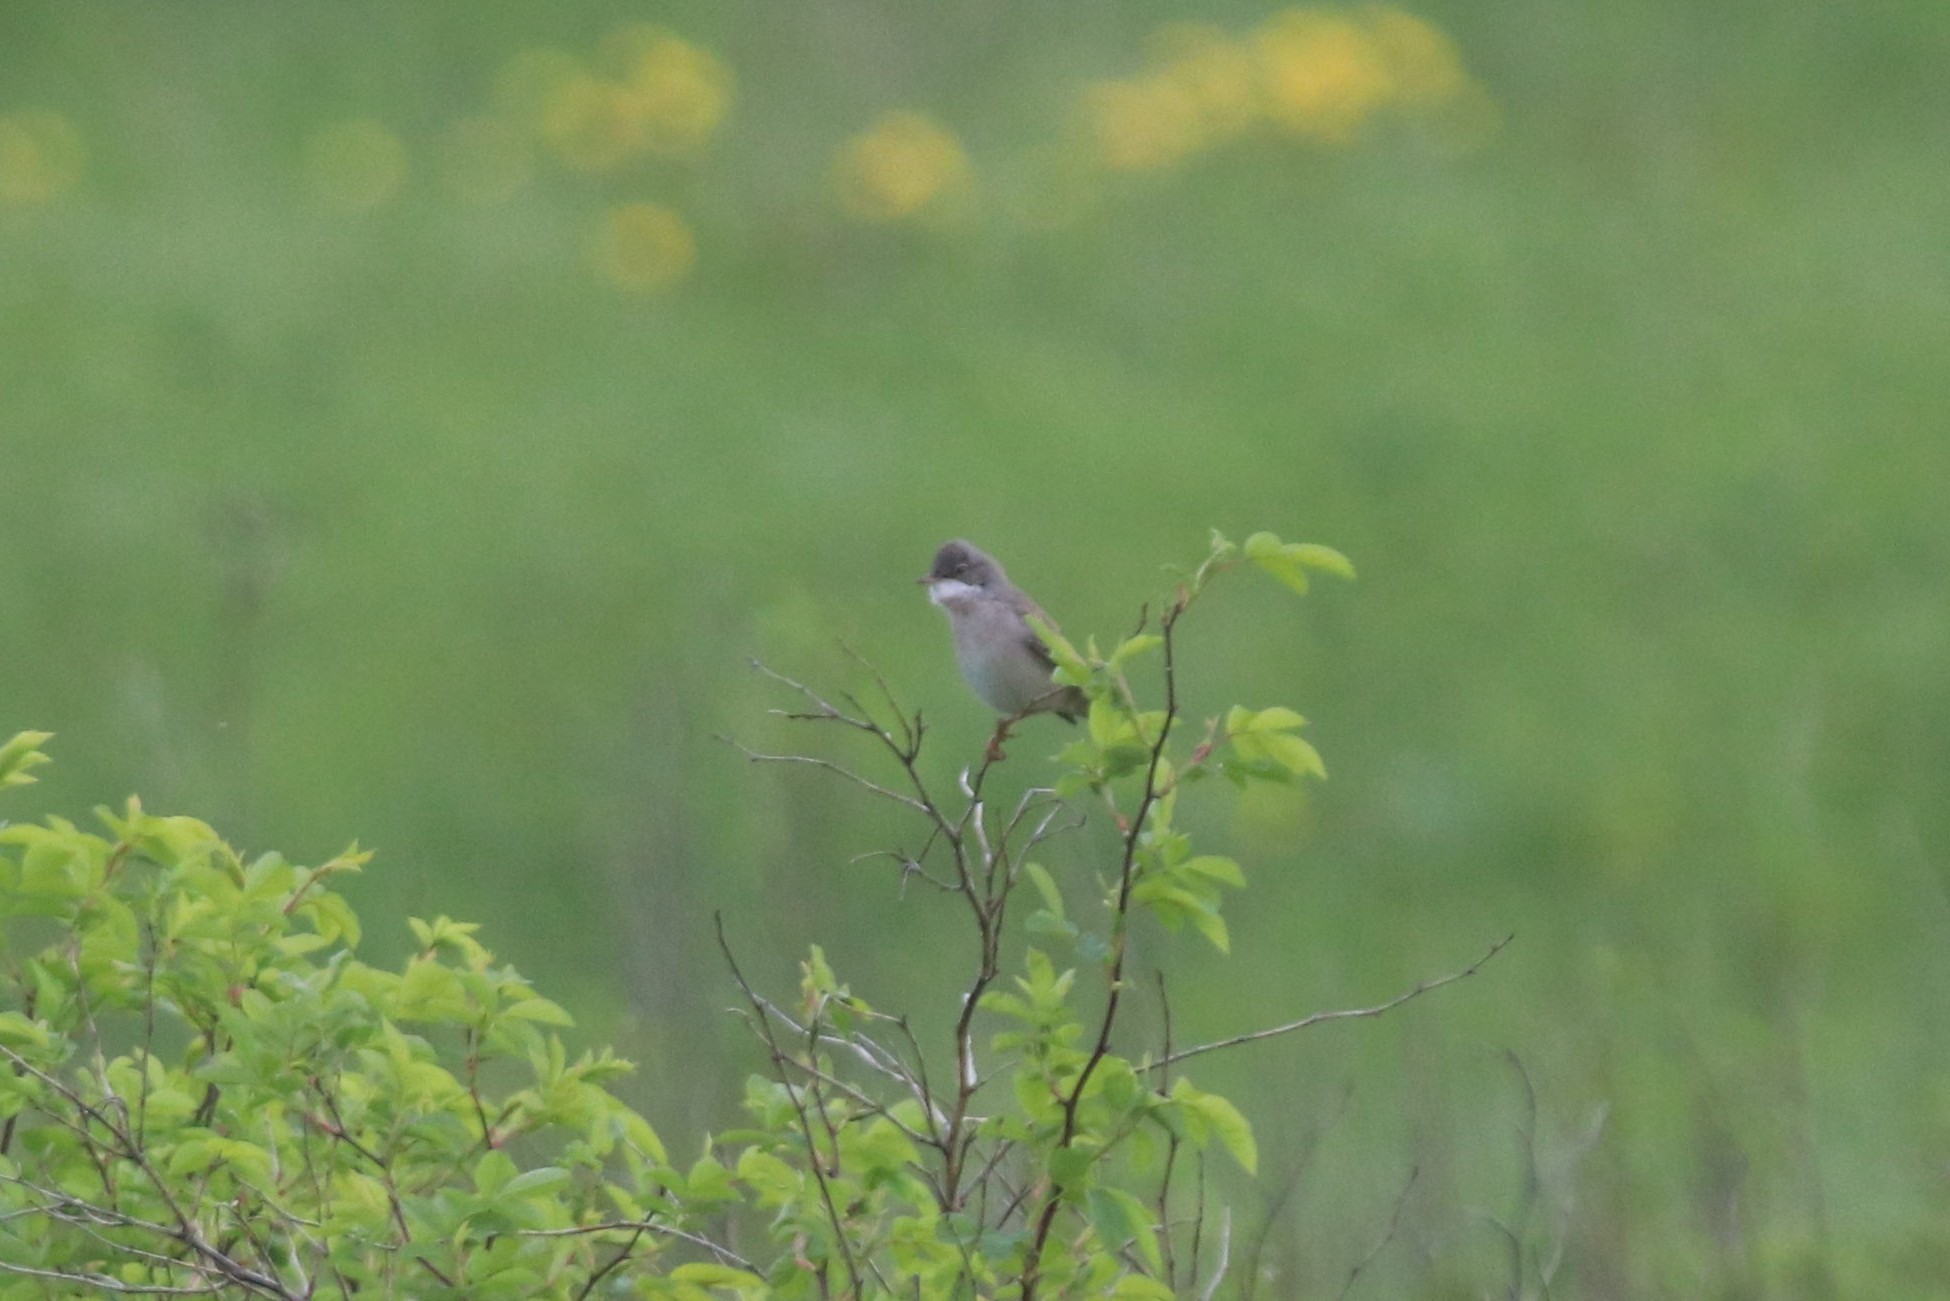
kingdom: Animalia
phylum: Chordata
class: Aves
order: Passeriformes
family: Sylviidae
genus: Sylvia
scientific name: Sylvia communis
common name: Common whitethroat
